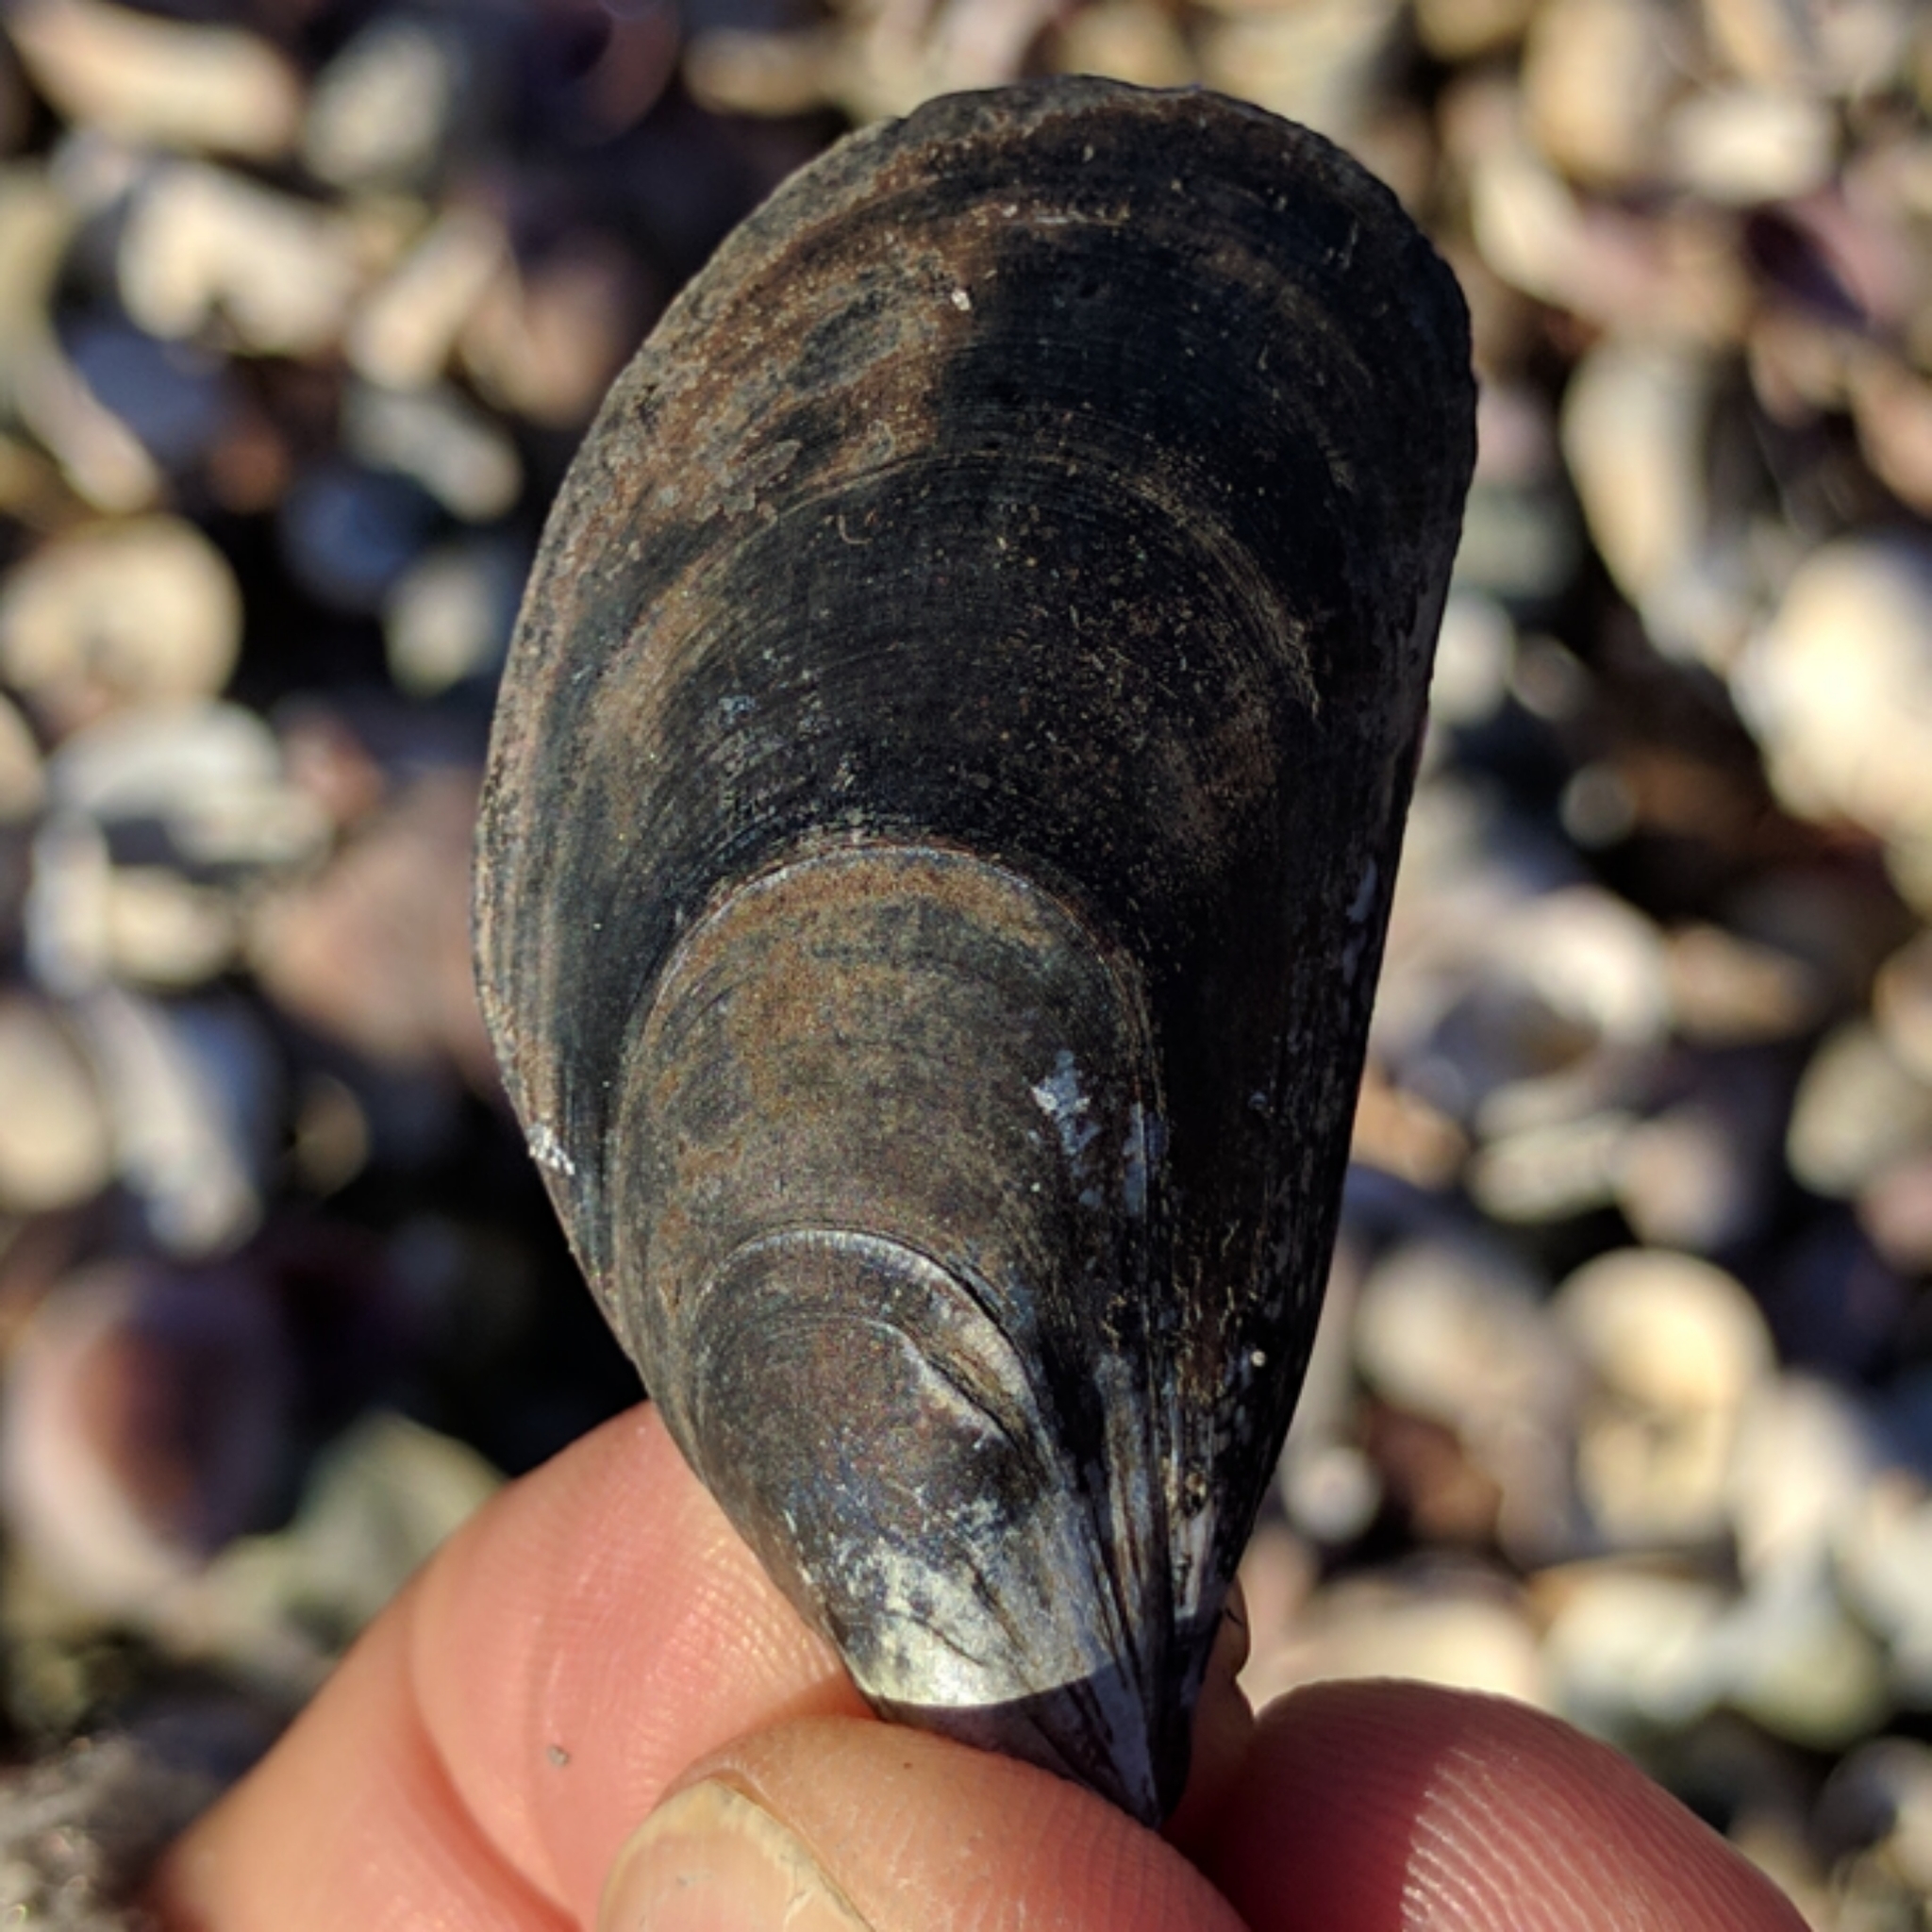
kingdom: Animalia
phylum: Mollusca
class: Bivalvia
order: Mytilida
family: Mytilidae
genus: Mytilus
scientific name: Mytilus edulis
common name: Blue mussel
